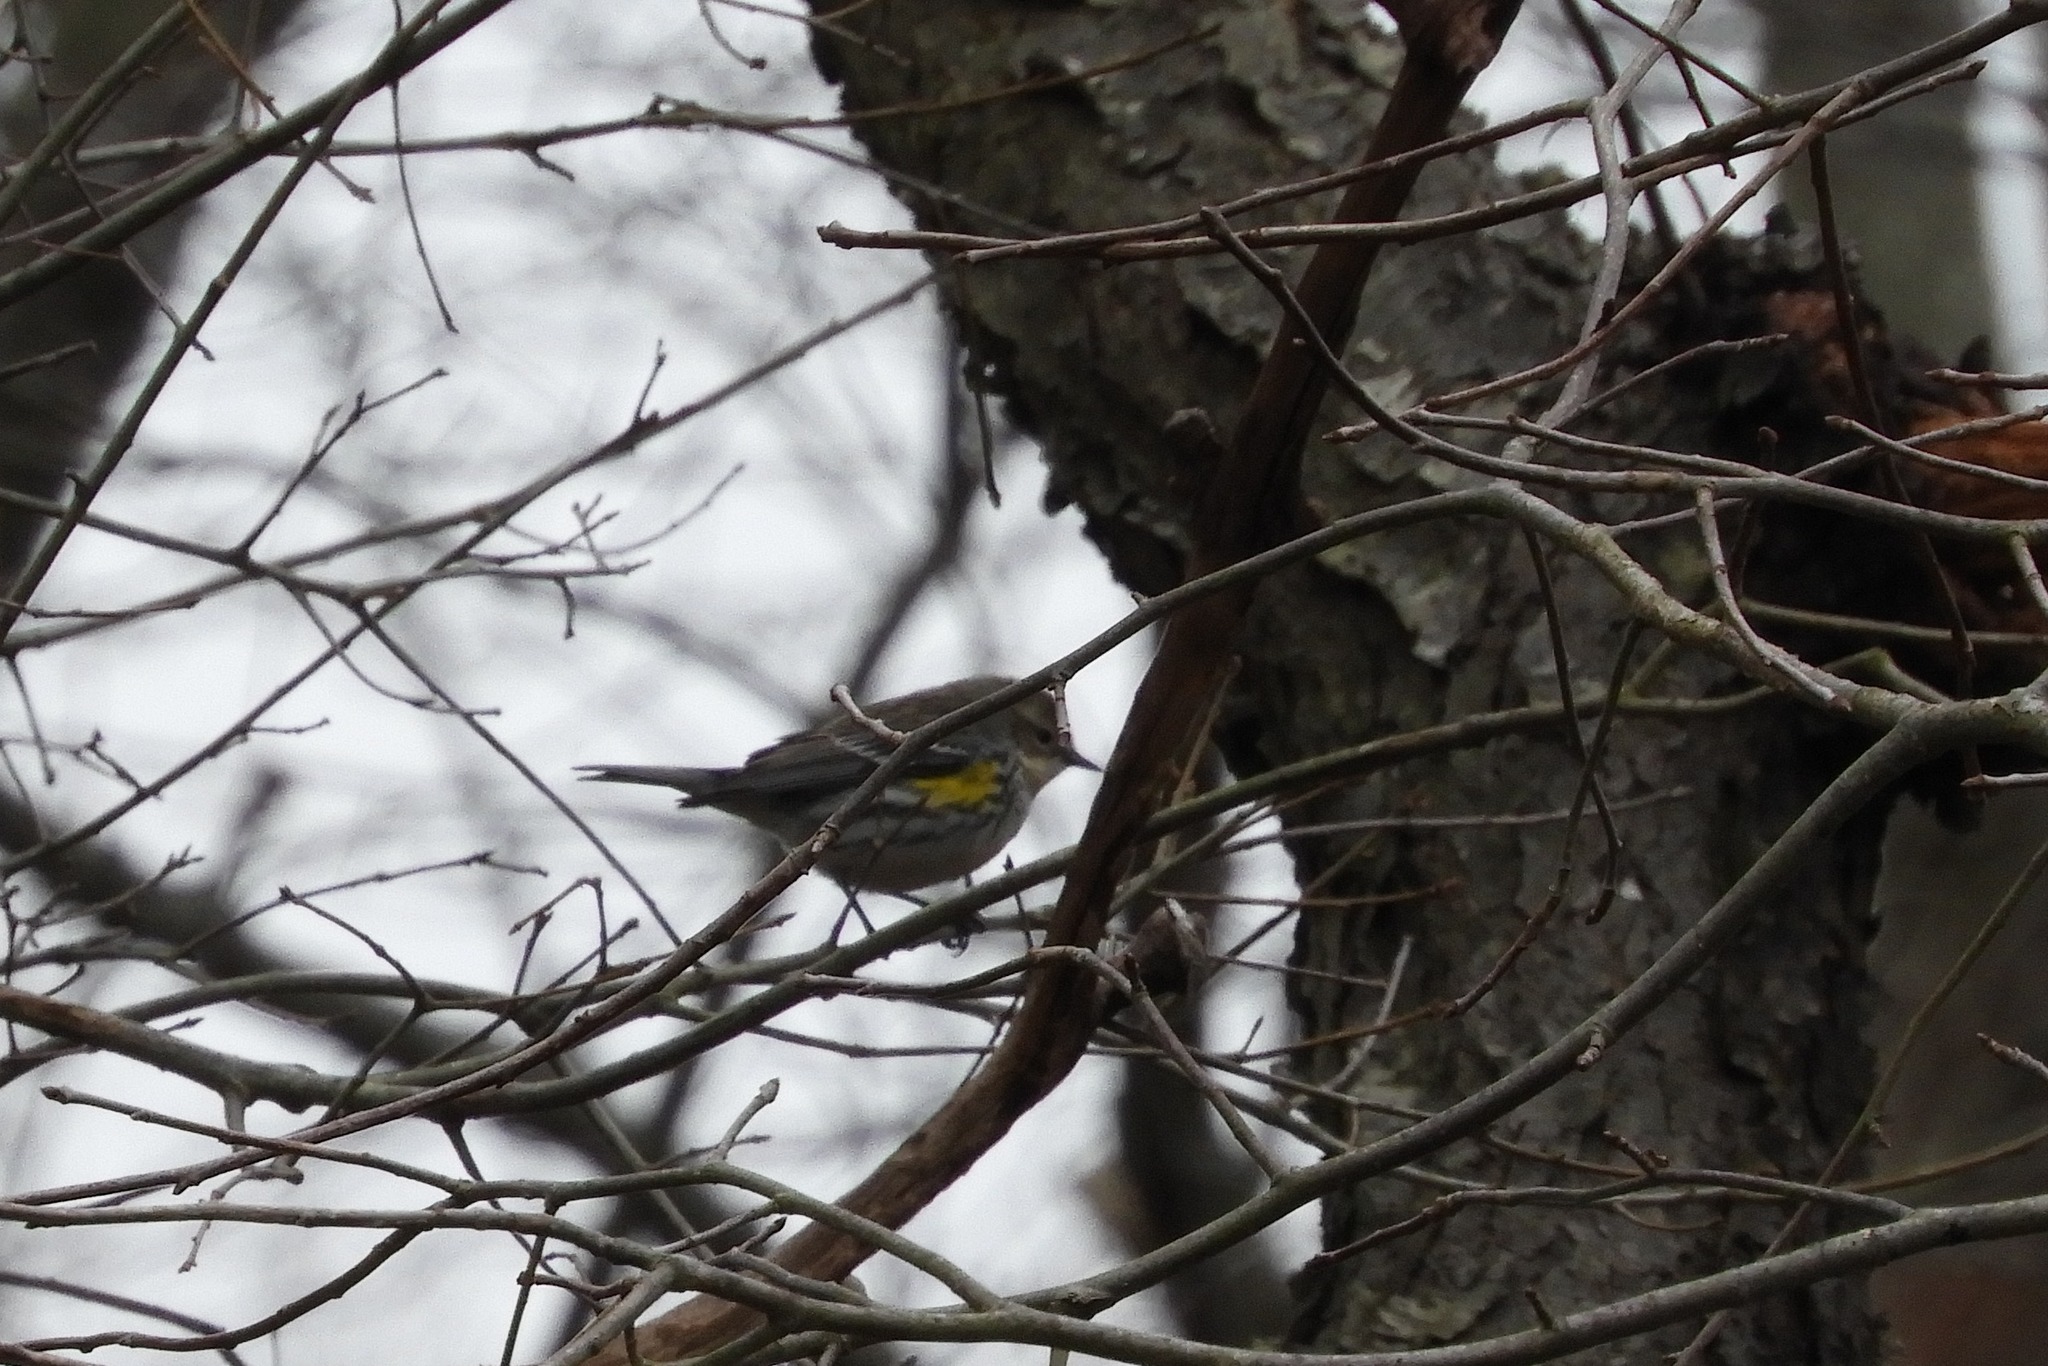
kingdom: Animalia
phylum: Chordata
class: Aves
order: Passeriformes
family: Parulidae
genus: Setophaga
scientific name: Setophaga coronata
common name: Myrtle warbler
